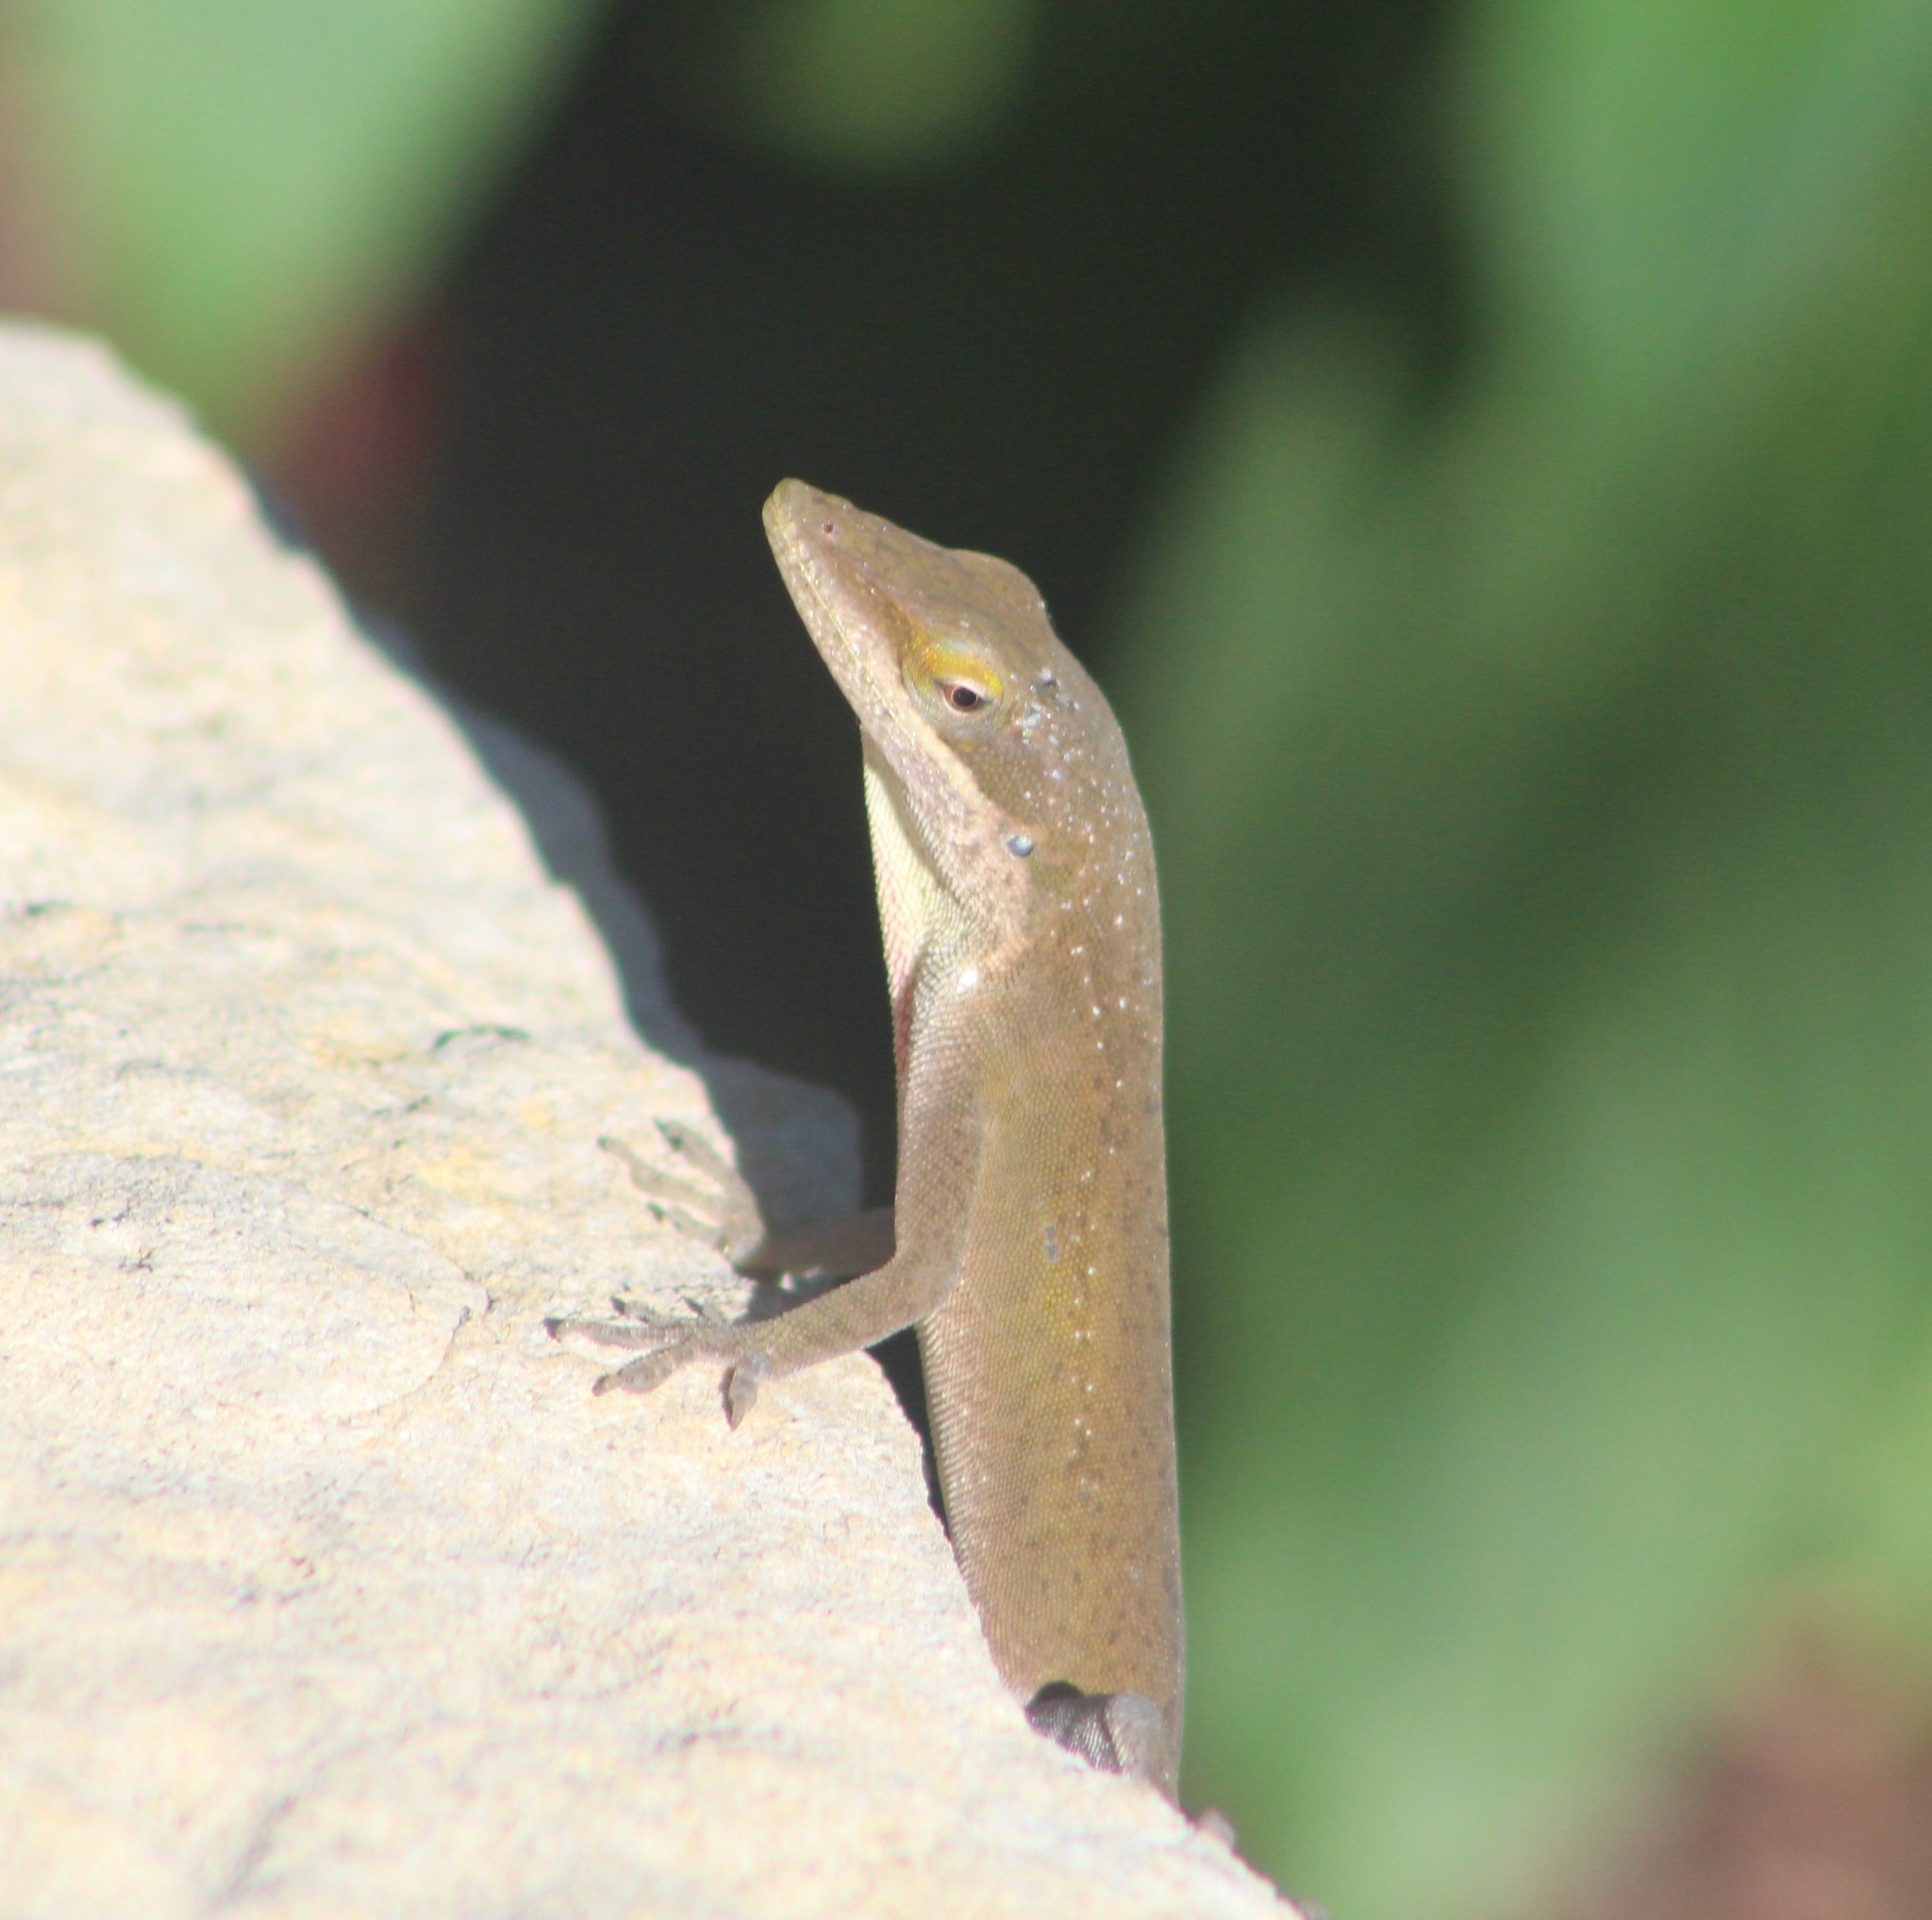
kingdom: Animalia
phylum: Chordata
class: Squamata
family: Dactyloidae
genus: Anolis
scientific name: Anolis carolinensis
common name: Green anole
